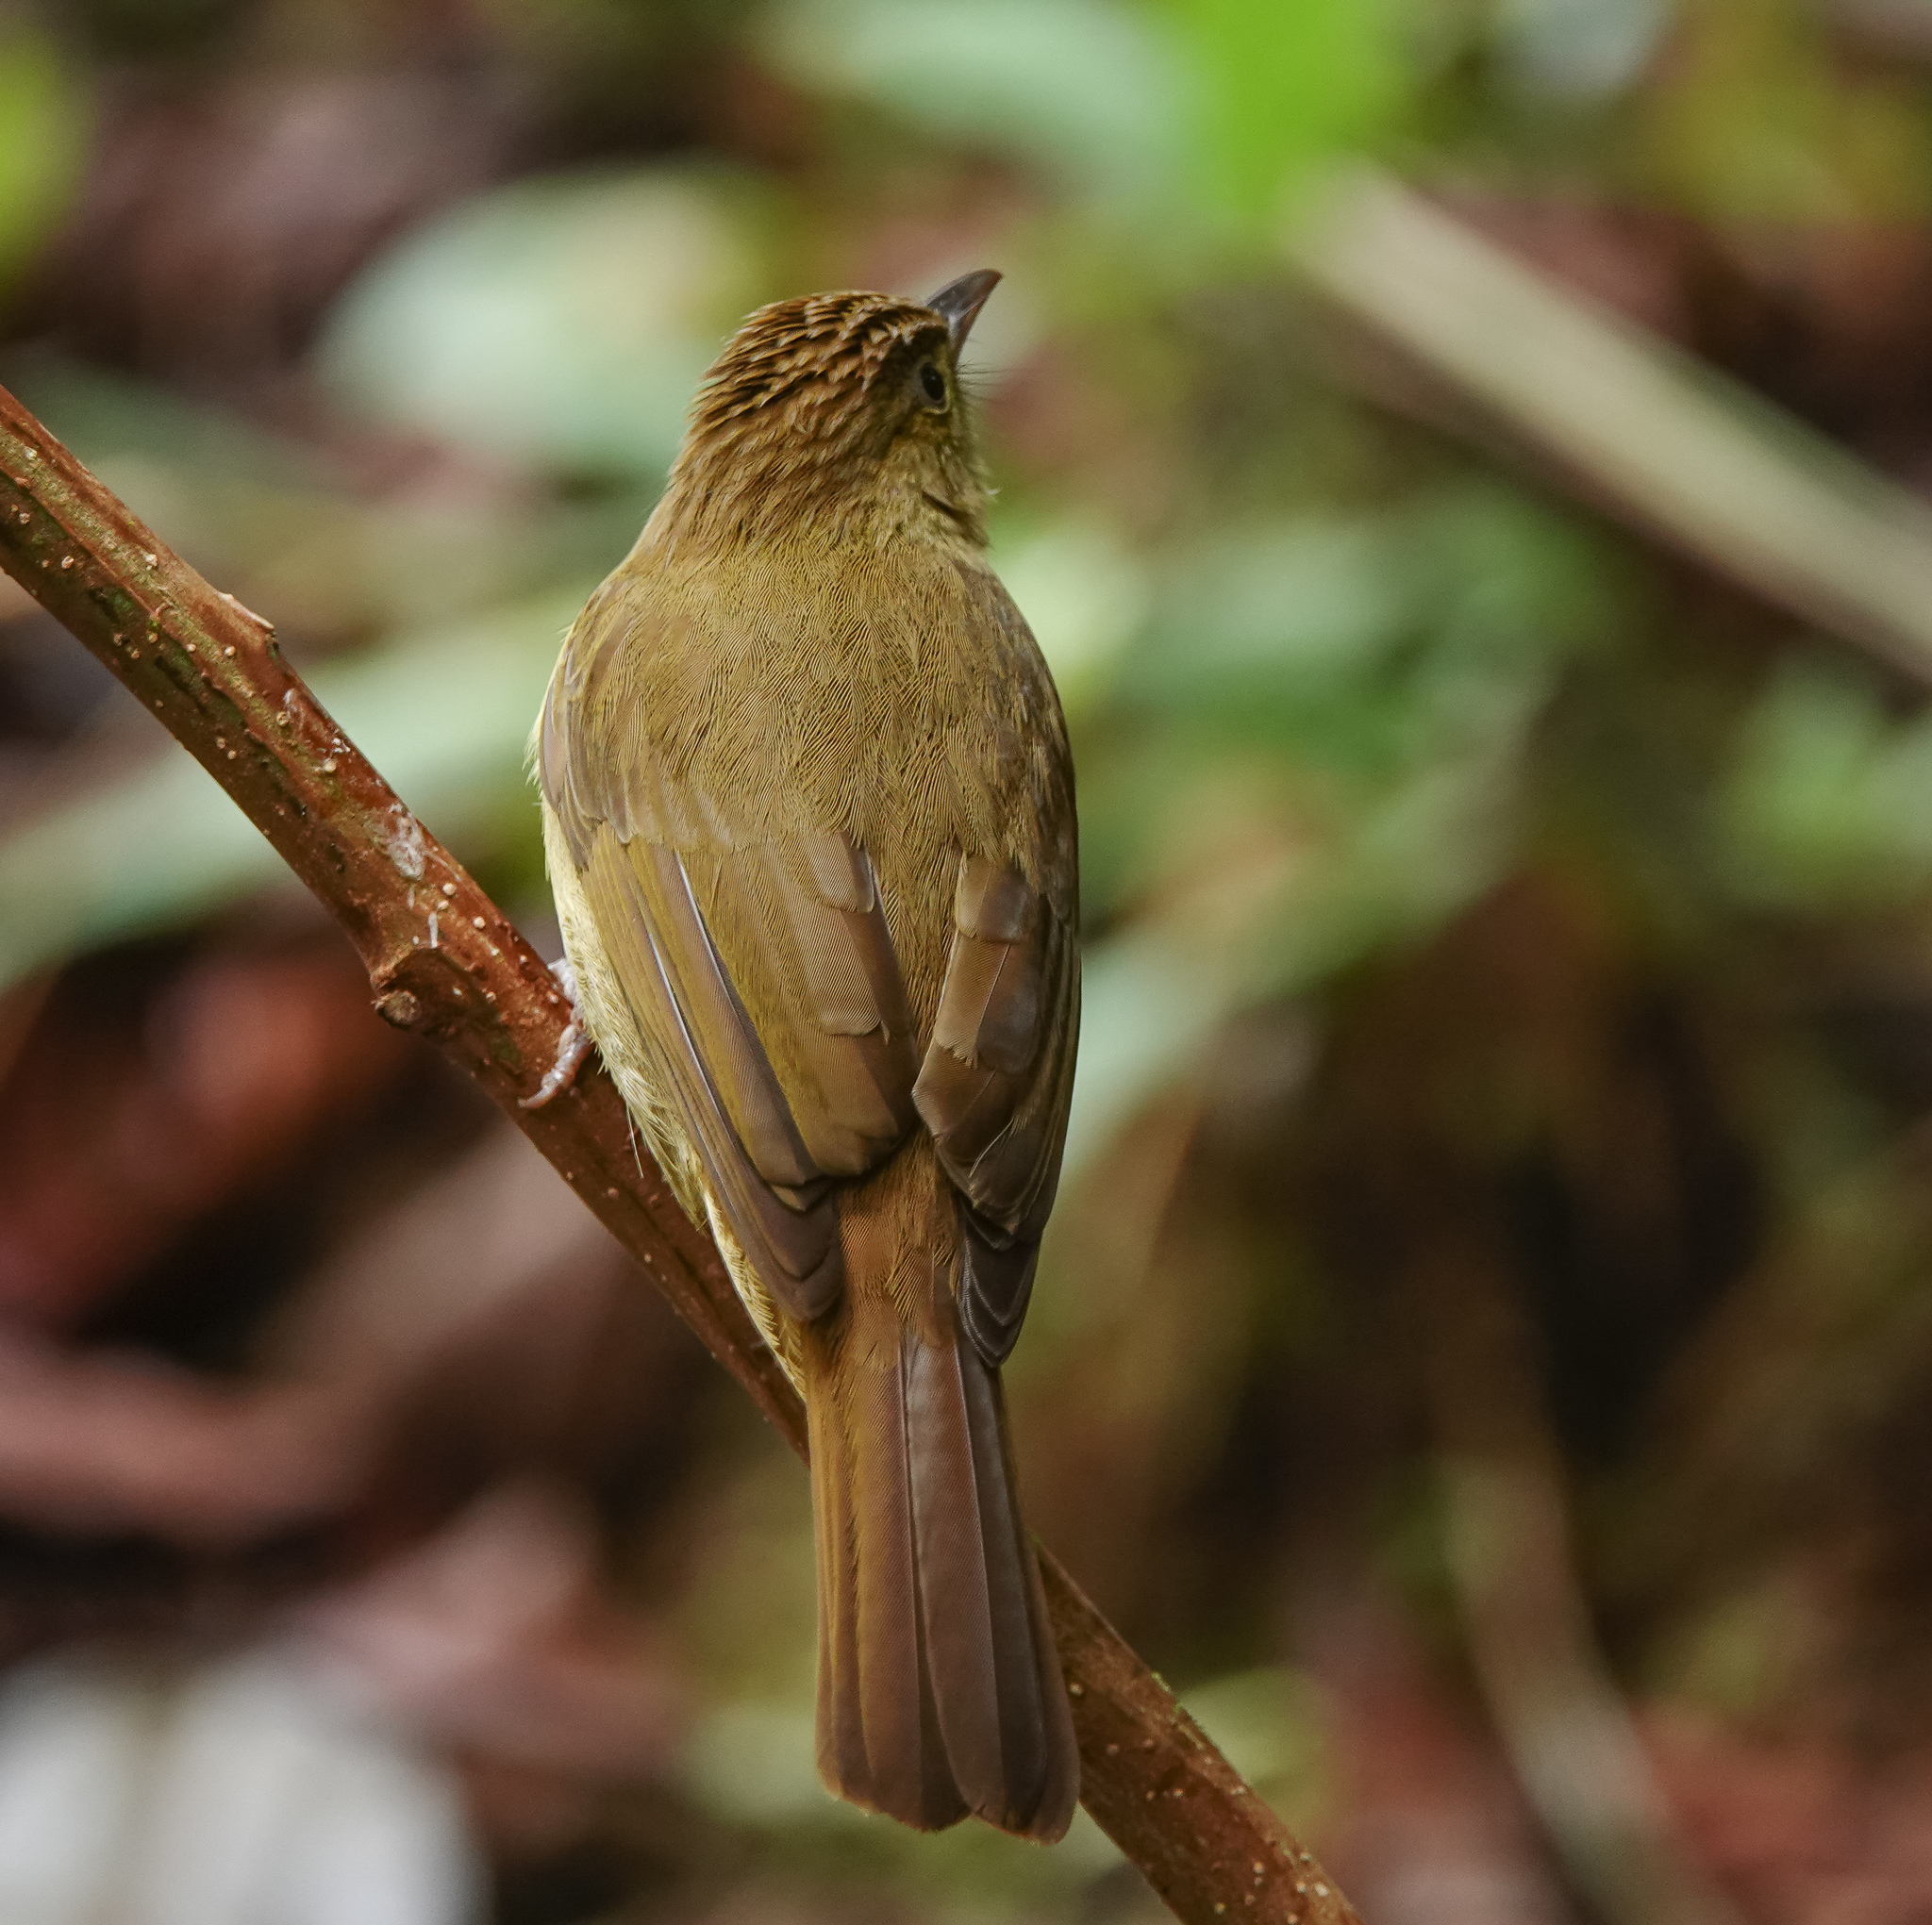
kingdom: Animalia
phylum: Chordata
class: Aves
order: Passeriformes
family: Pycnonotidae
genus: Iole
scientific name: Iole virescens
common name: Olive bulbul
